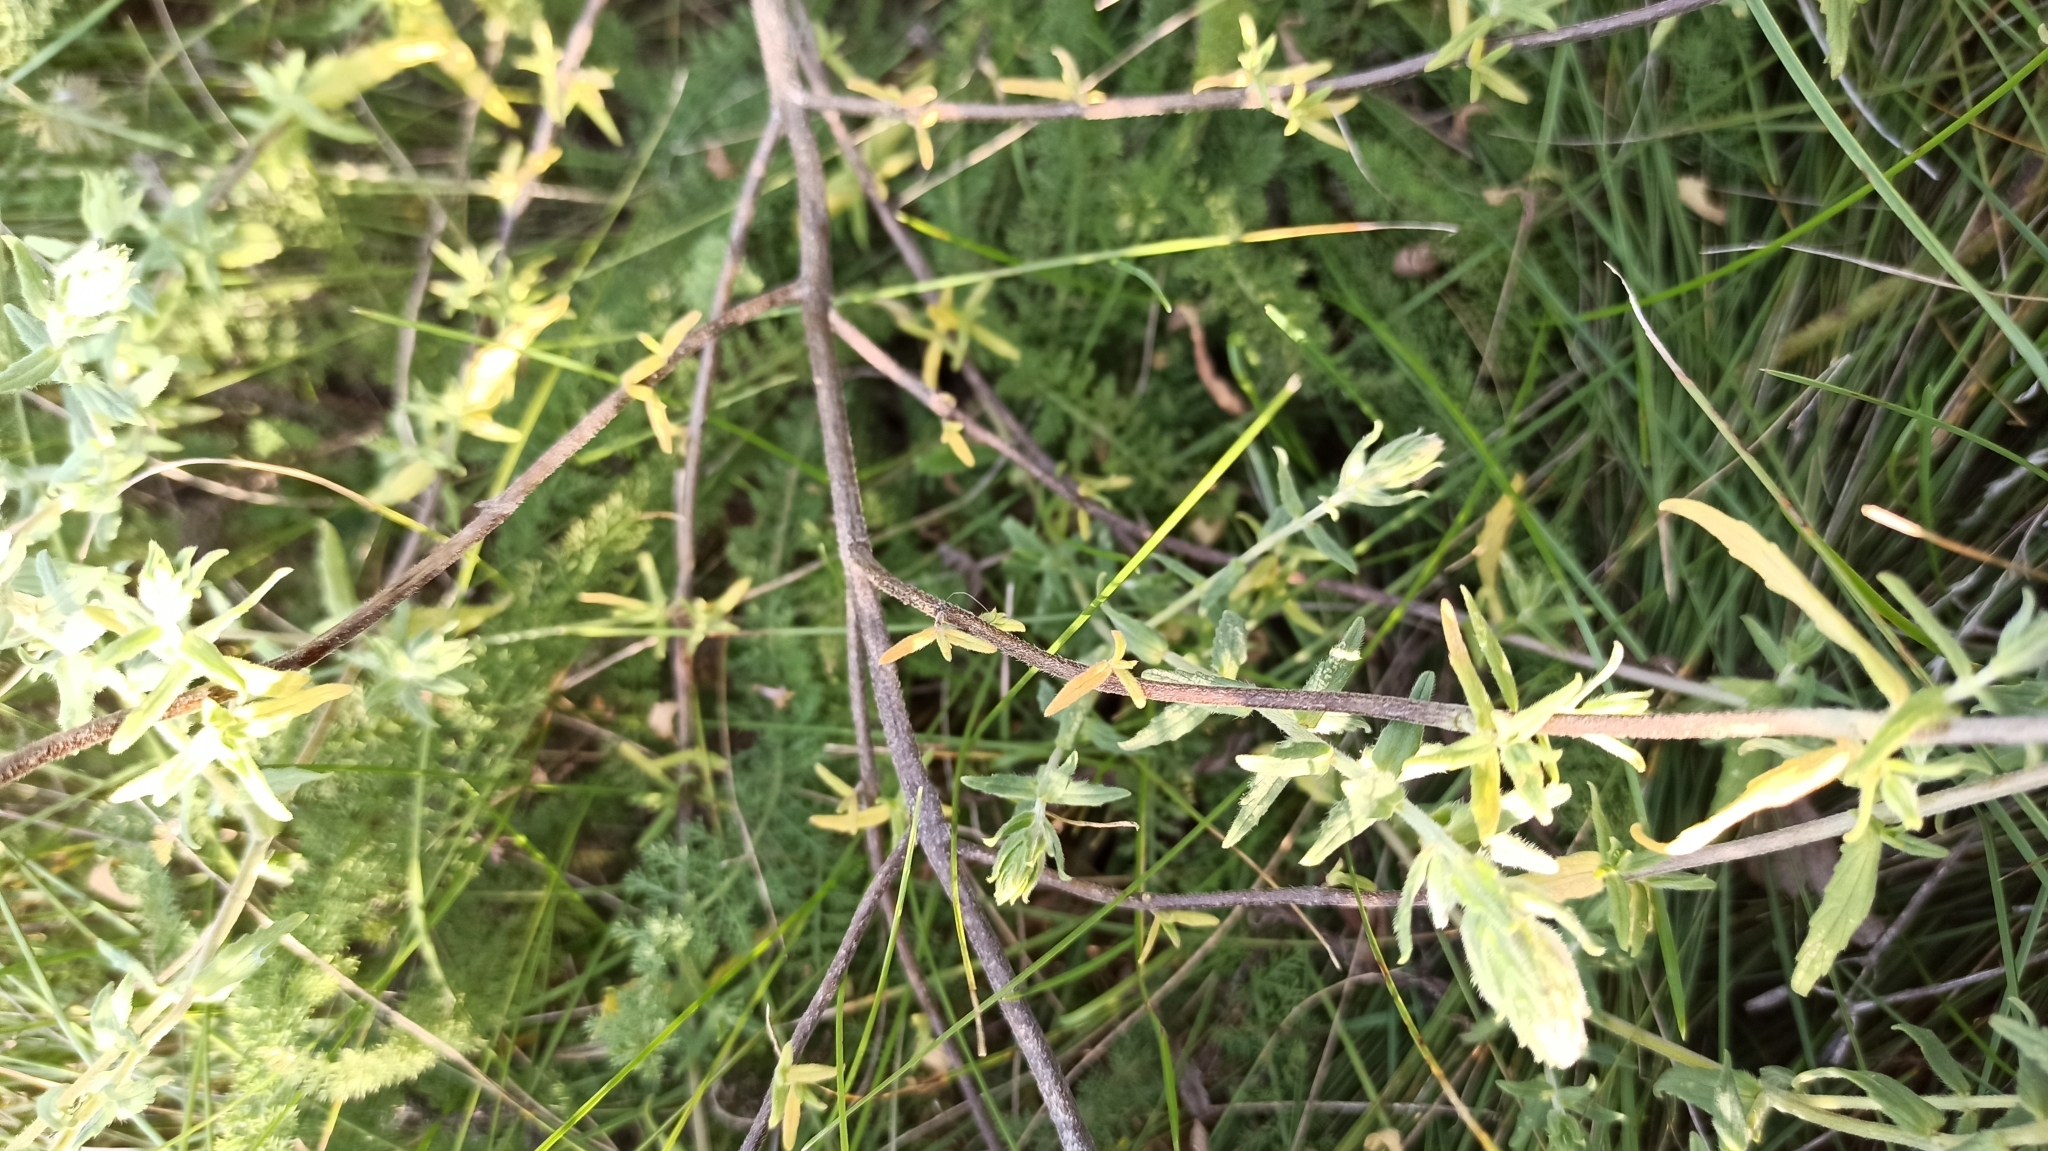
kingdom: Plantae
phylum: Tracheophyta
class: Magnoliopsida
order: Lamiales
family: Orobanchaceae
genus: Odontites
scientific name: Odontites vulgaris
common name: Broomrape
